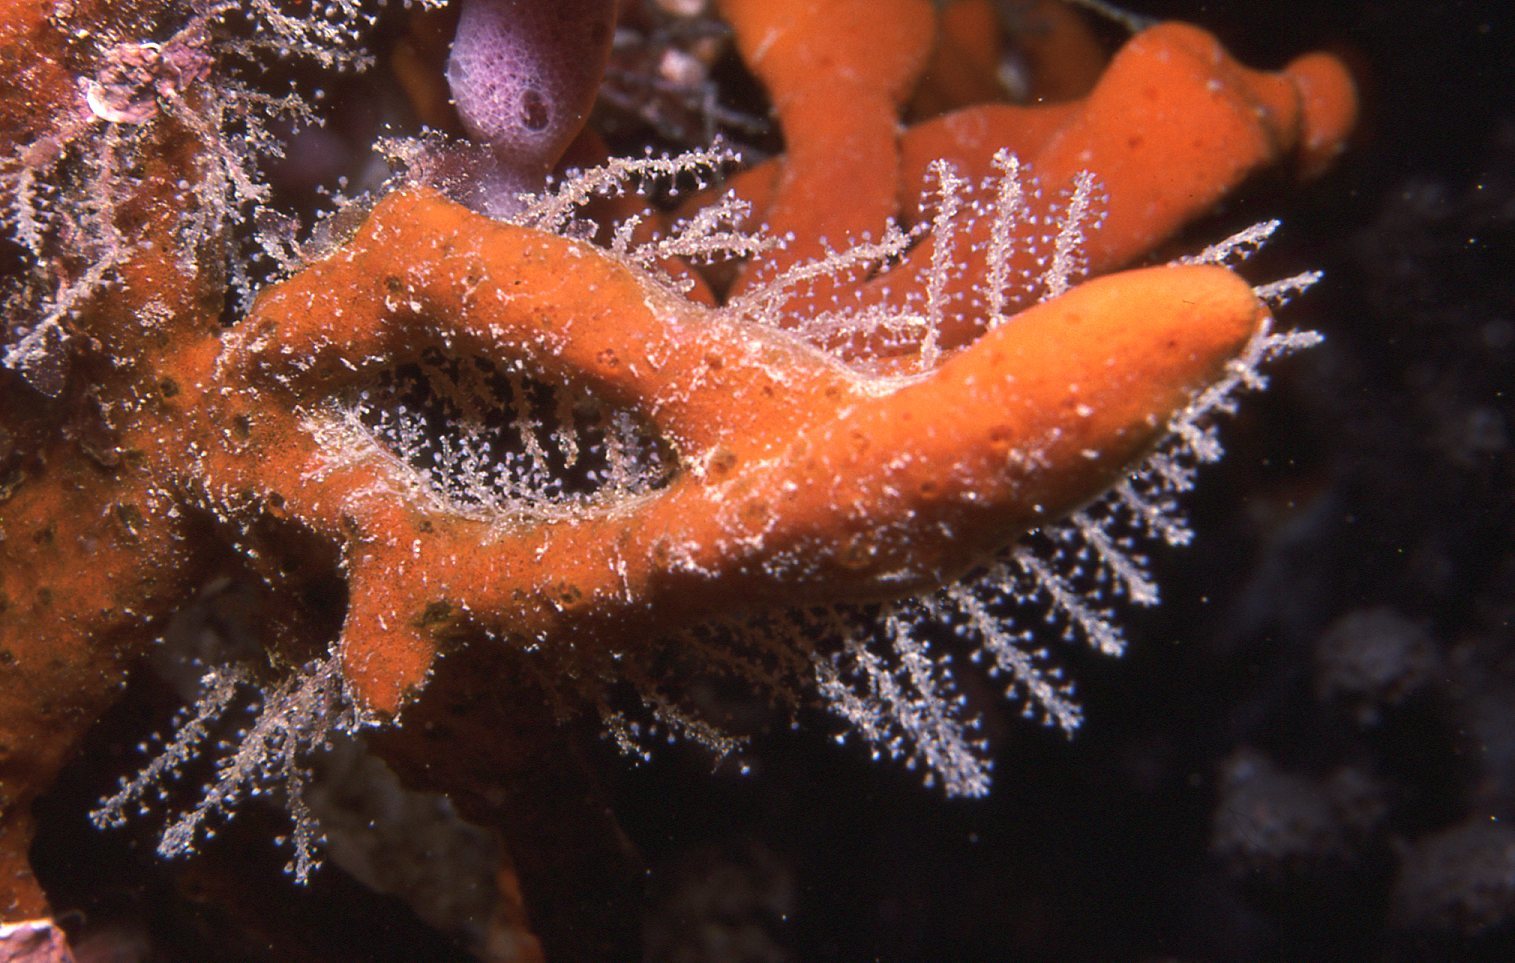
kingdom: Animalia
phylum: Cnidaria
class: Hydrozoa
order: Leptothecata
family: Phylactothecidae
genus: Hydrodendron
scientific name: Hydrodendron australe
